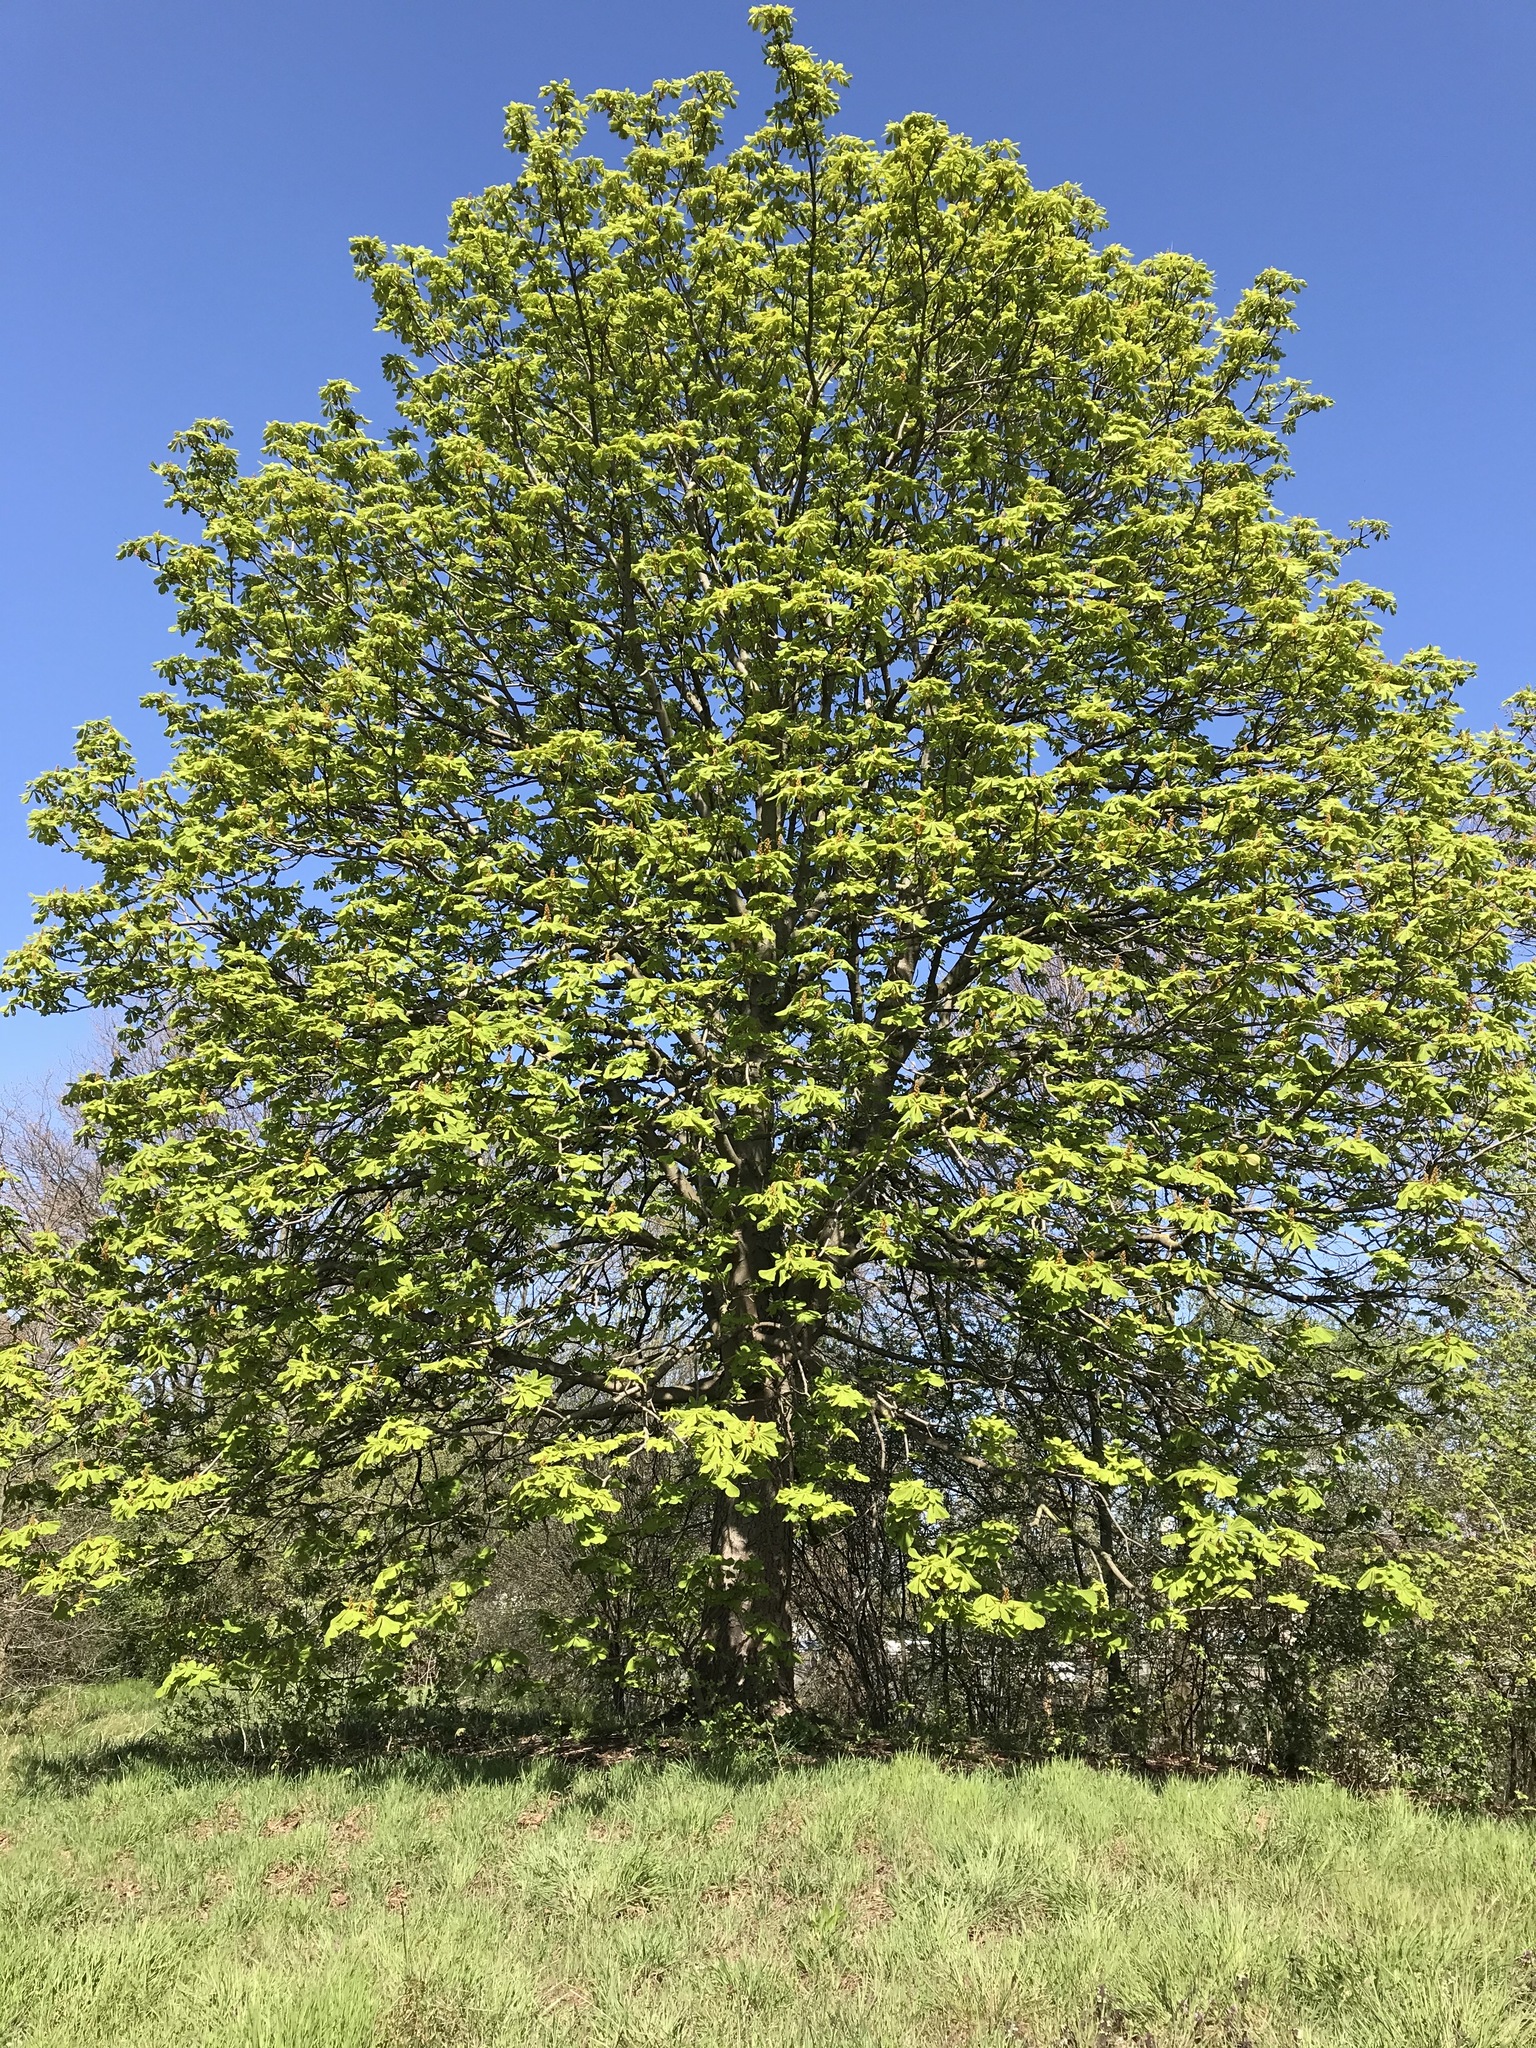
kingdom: Plantae
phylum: Tracheophyta
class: Magnoliopsida
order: Sapindales
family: Sapindaceae
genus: Aesculus
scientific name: Aesculus hippocastanum
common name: Horse-chestnut
